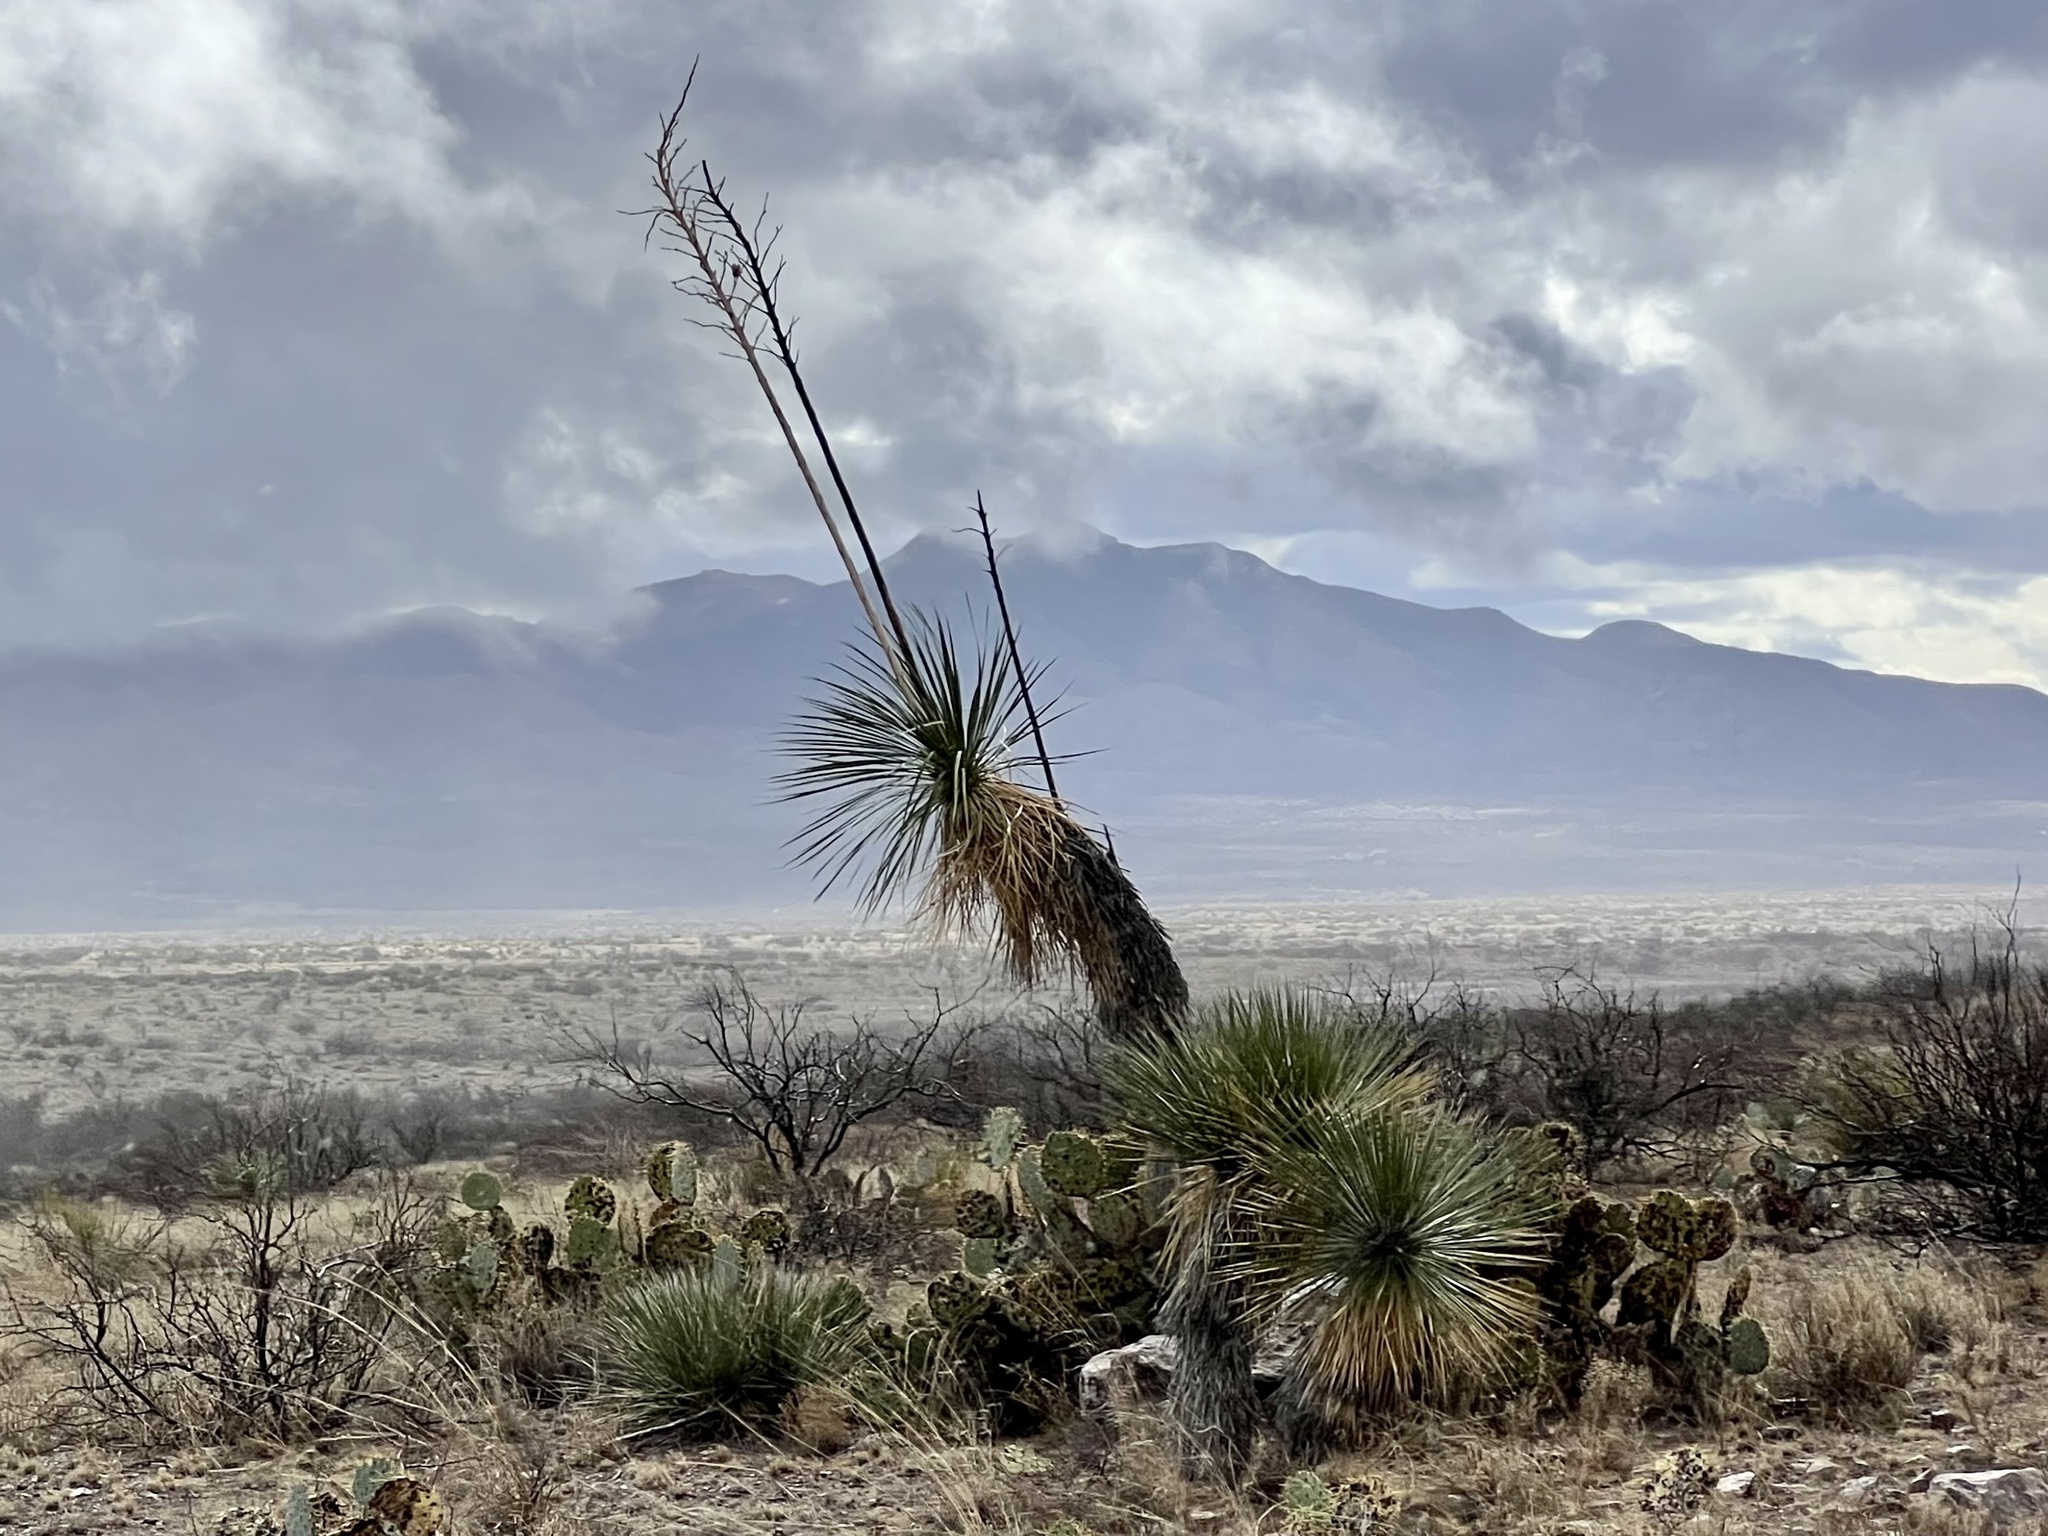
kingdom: Plantae
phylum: Tracheophyta
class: Liliopsida
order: Asparagales
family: Asparagaceae
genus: Yucca
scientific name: Yucca elata
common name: Palmella
